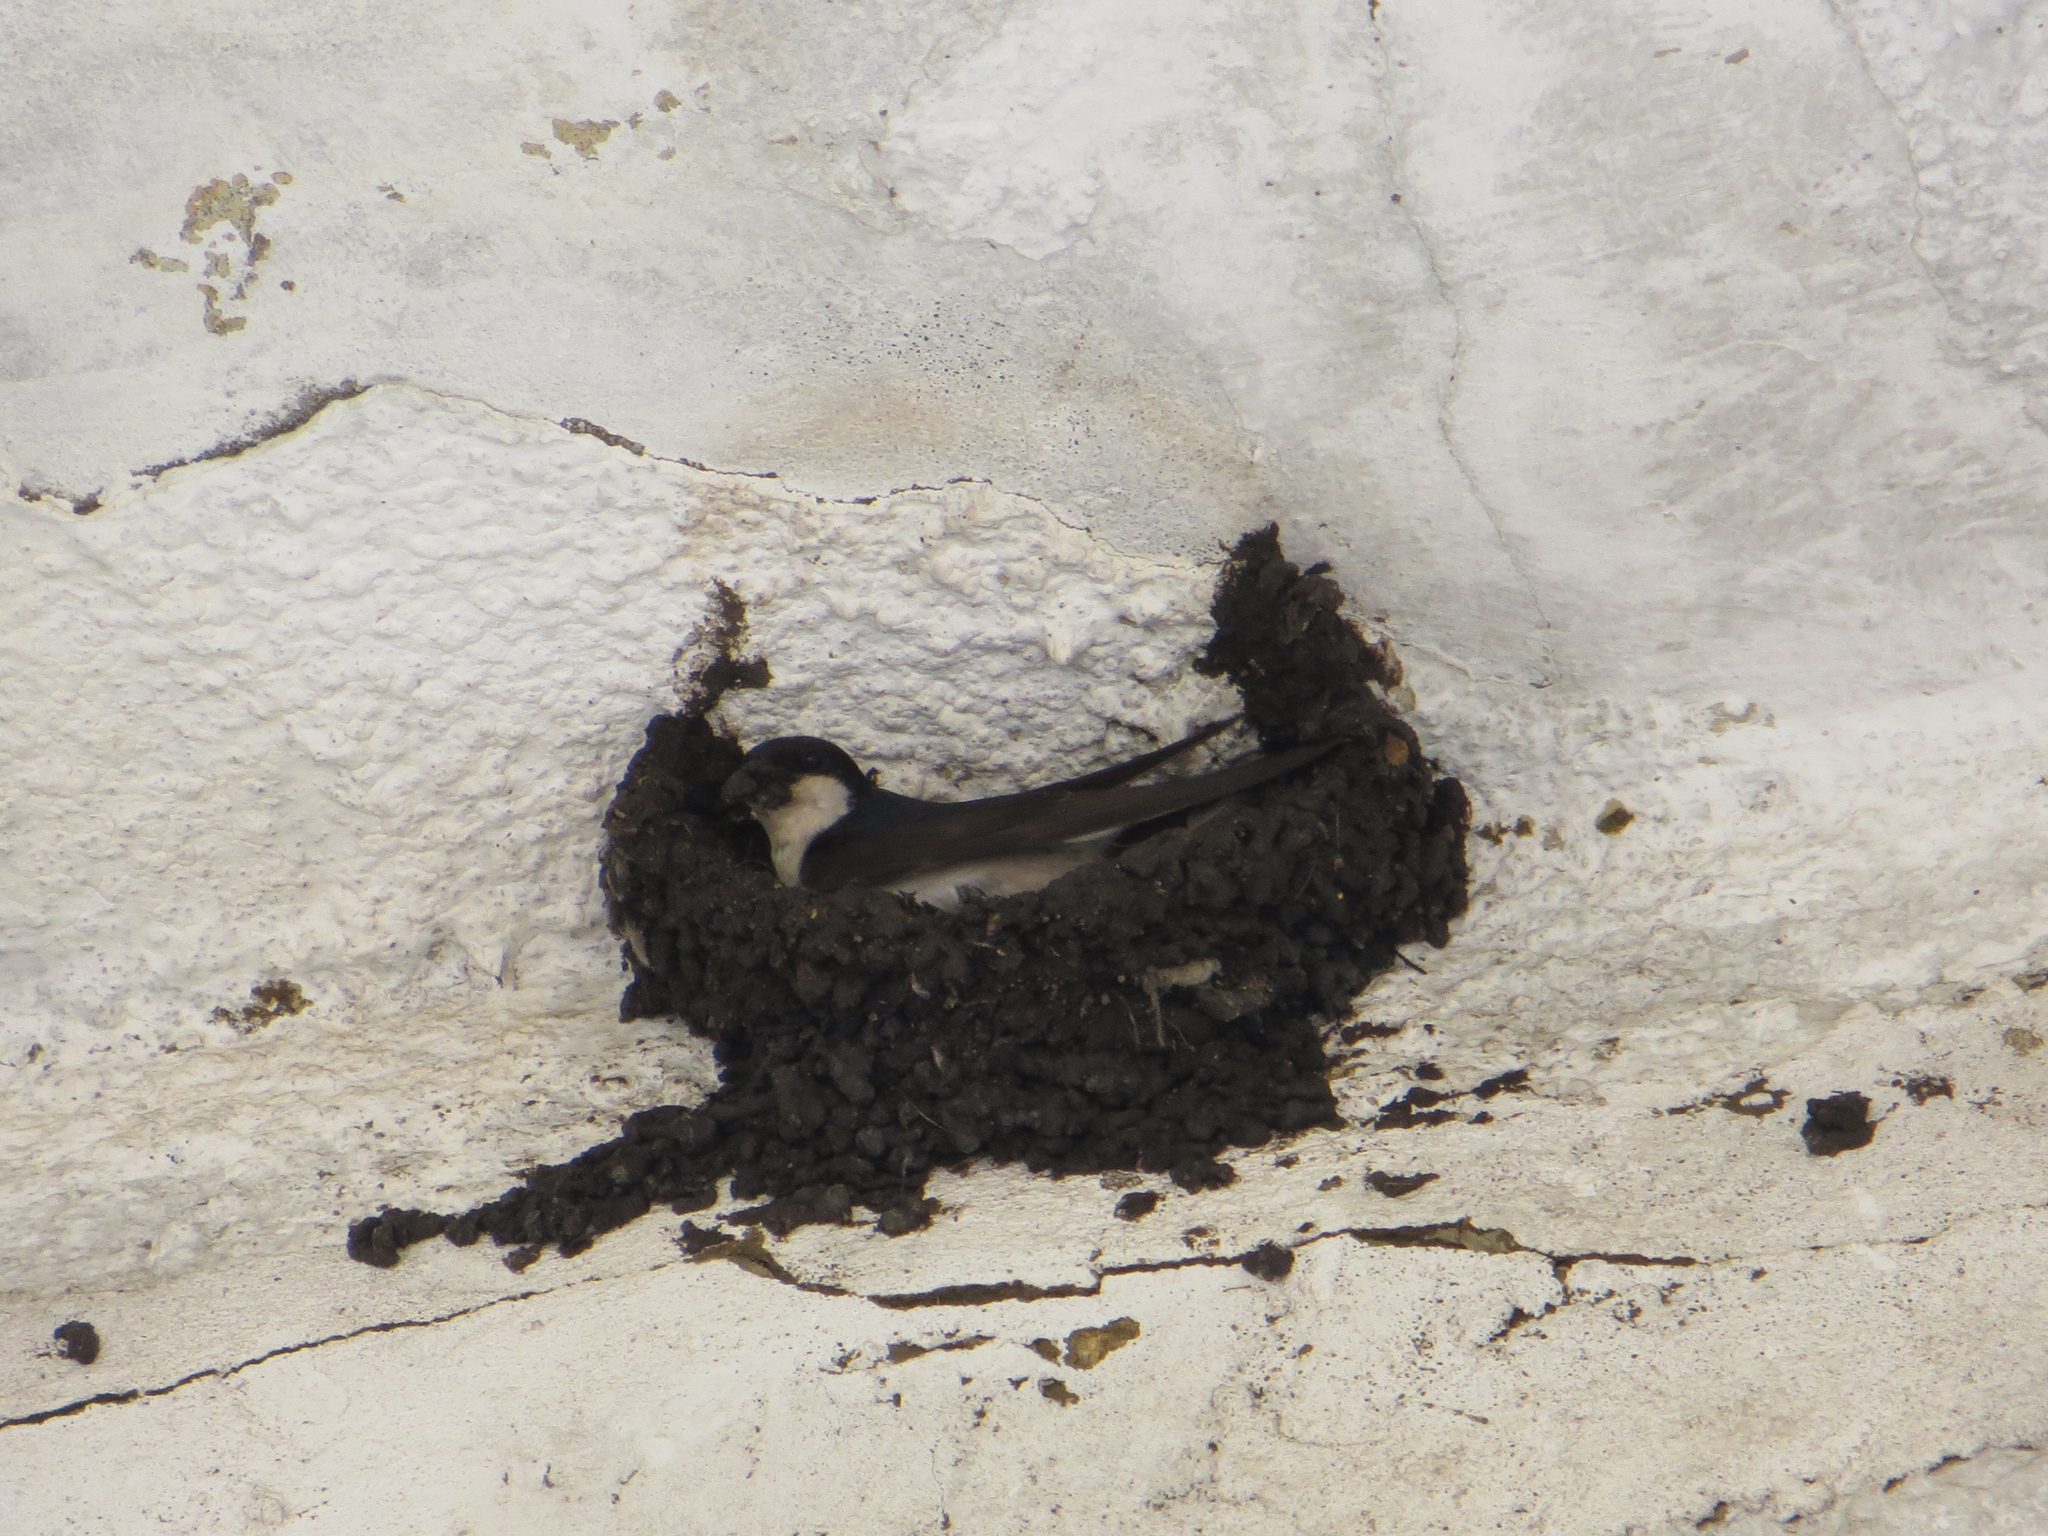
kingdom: Animalia
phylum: Chordata
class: Aves
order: Passeriformes
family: Hirundinidae
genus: Delichon
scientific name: Delichon urbicum
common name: Common house martin
